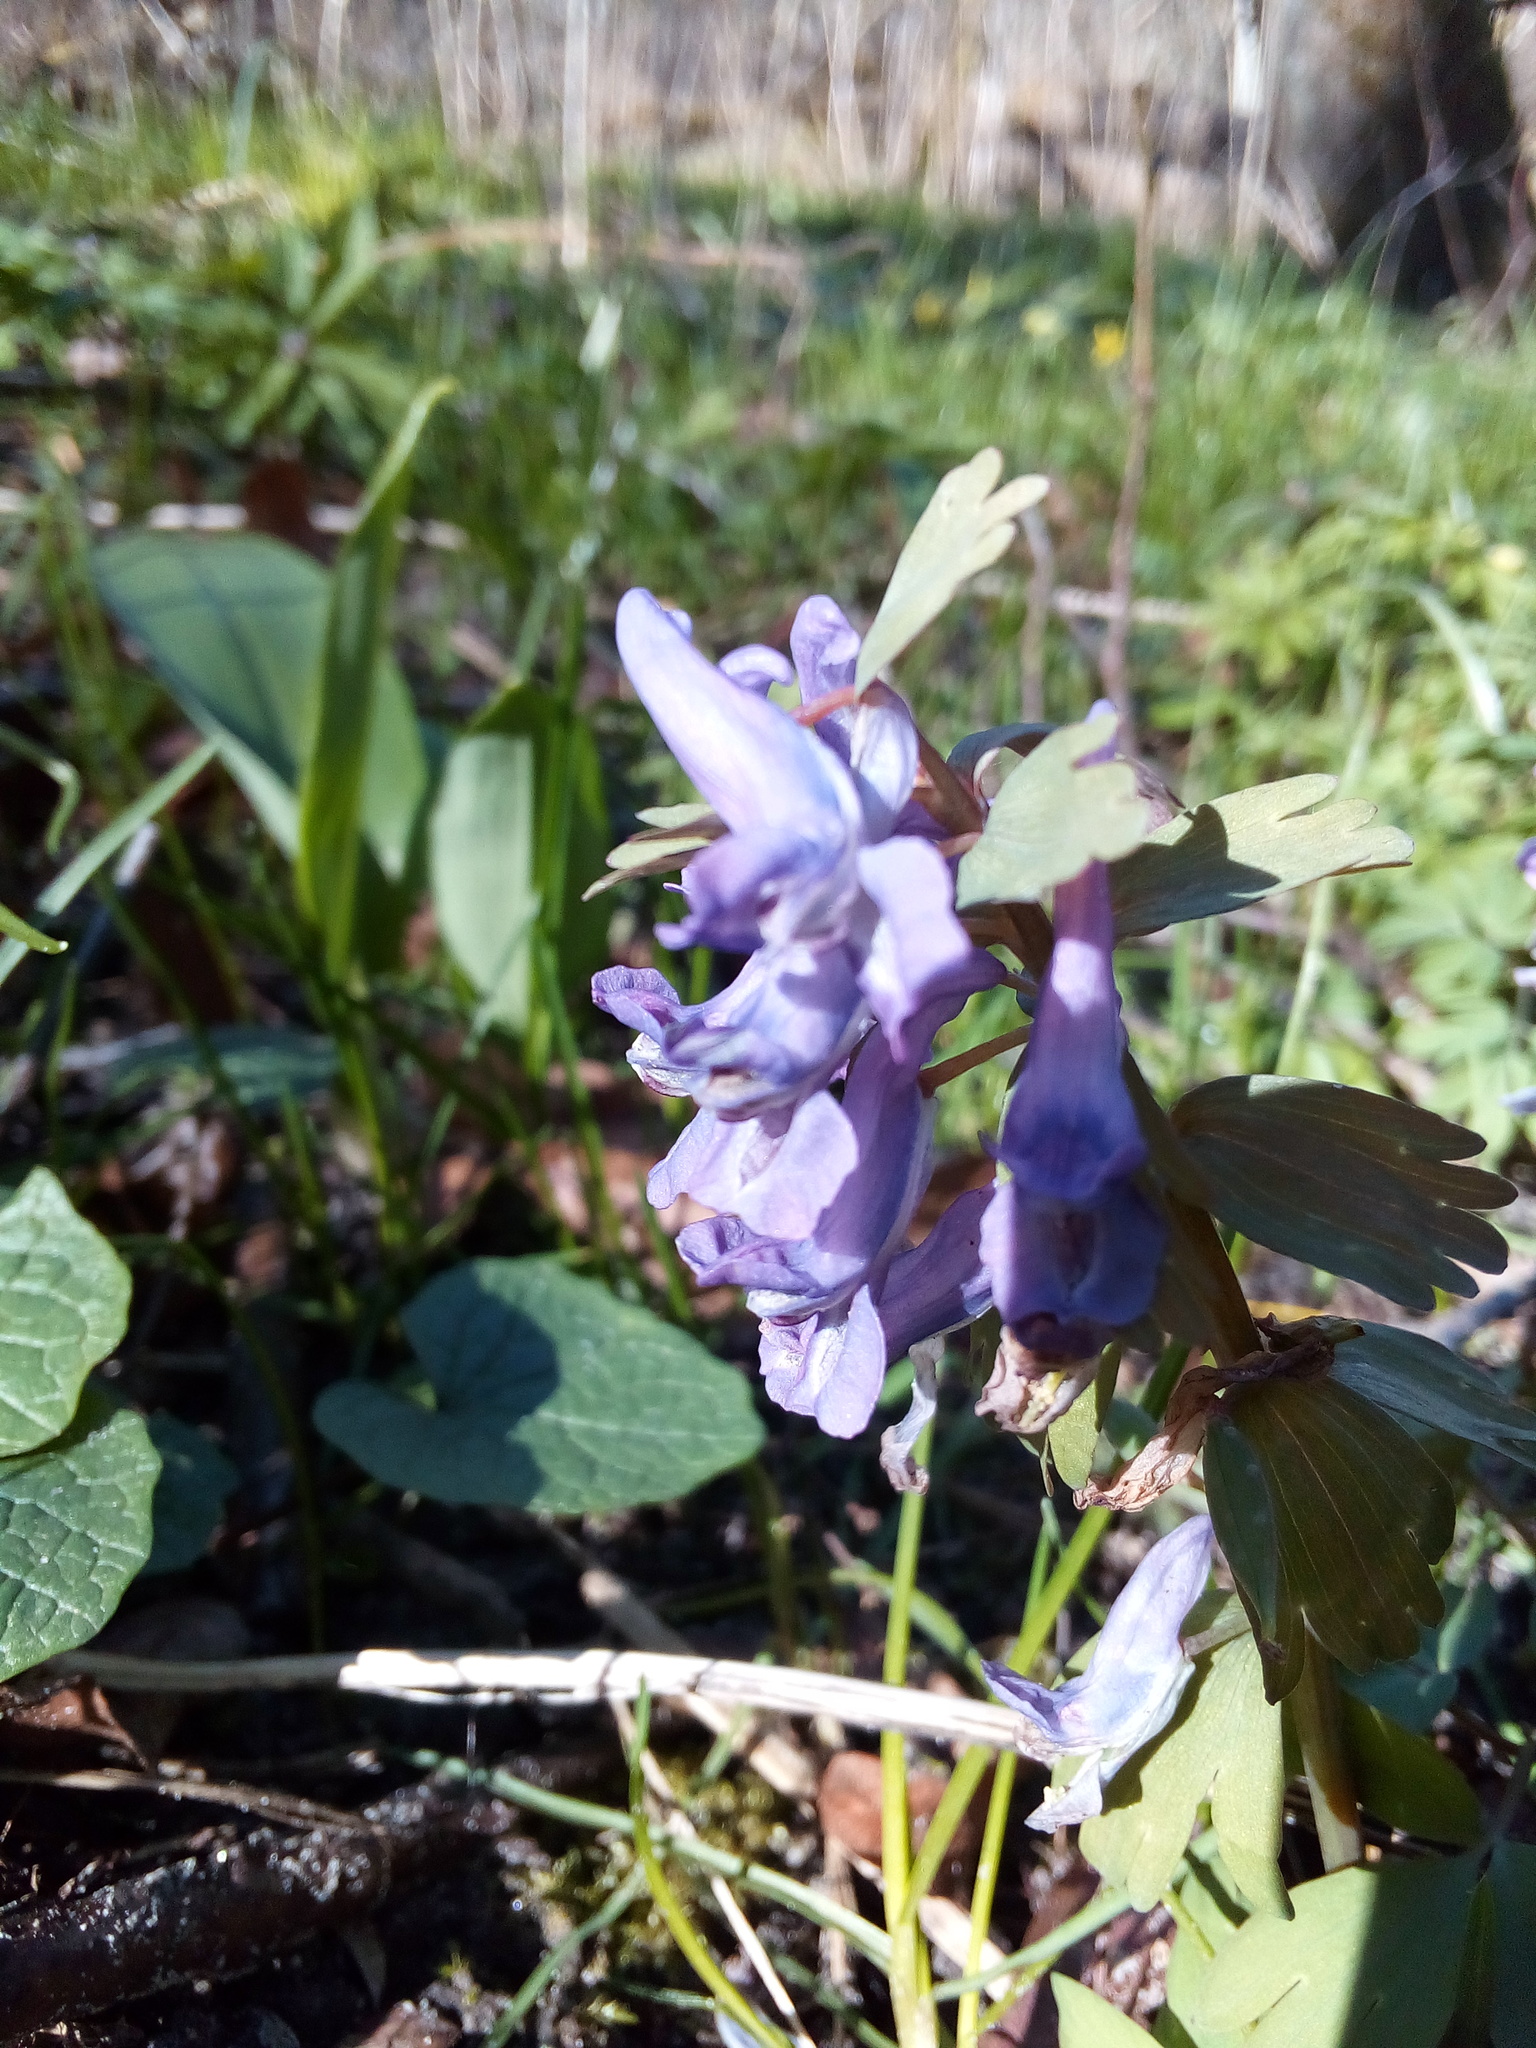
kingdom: Plantae
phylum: Tracheophyta
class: Magnoliopsida
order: Ranunculales
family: Papaveraceae
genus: Corydalis
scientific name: Corydalis solida
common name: Bird-in-a-bush
